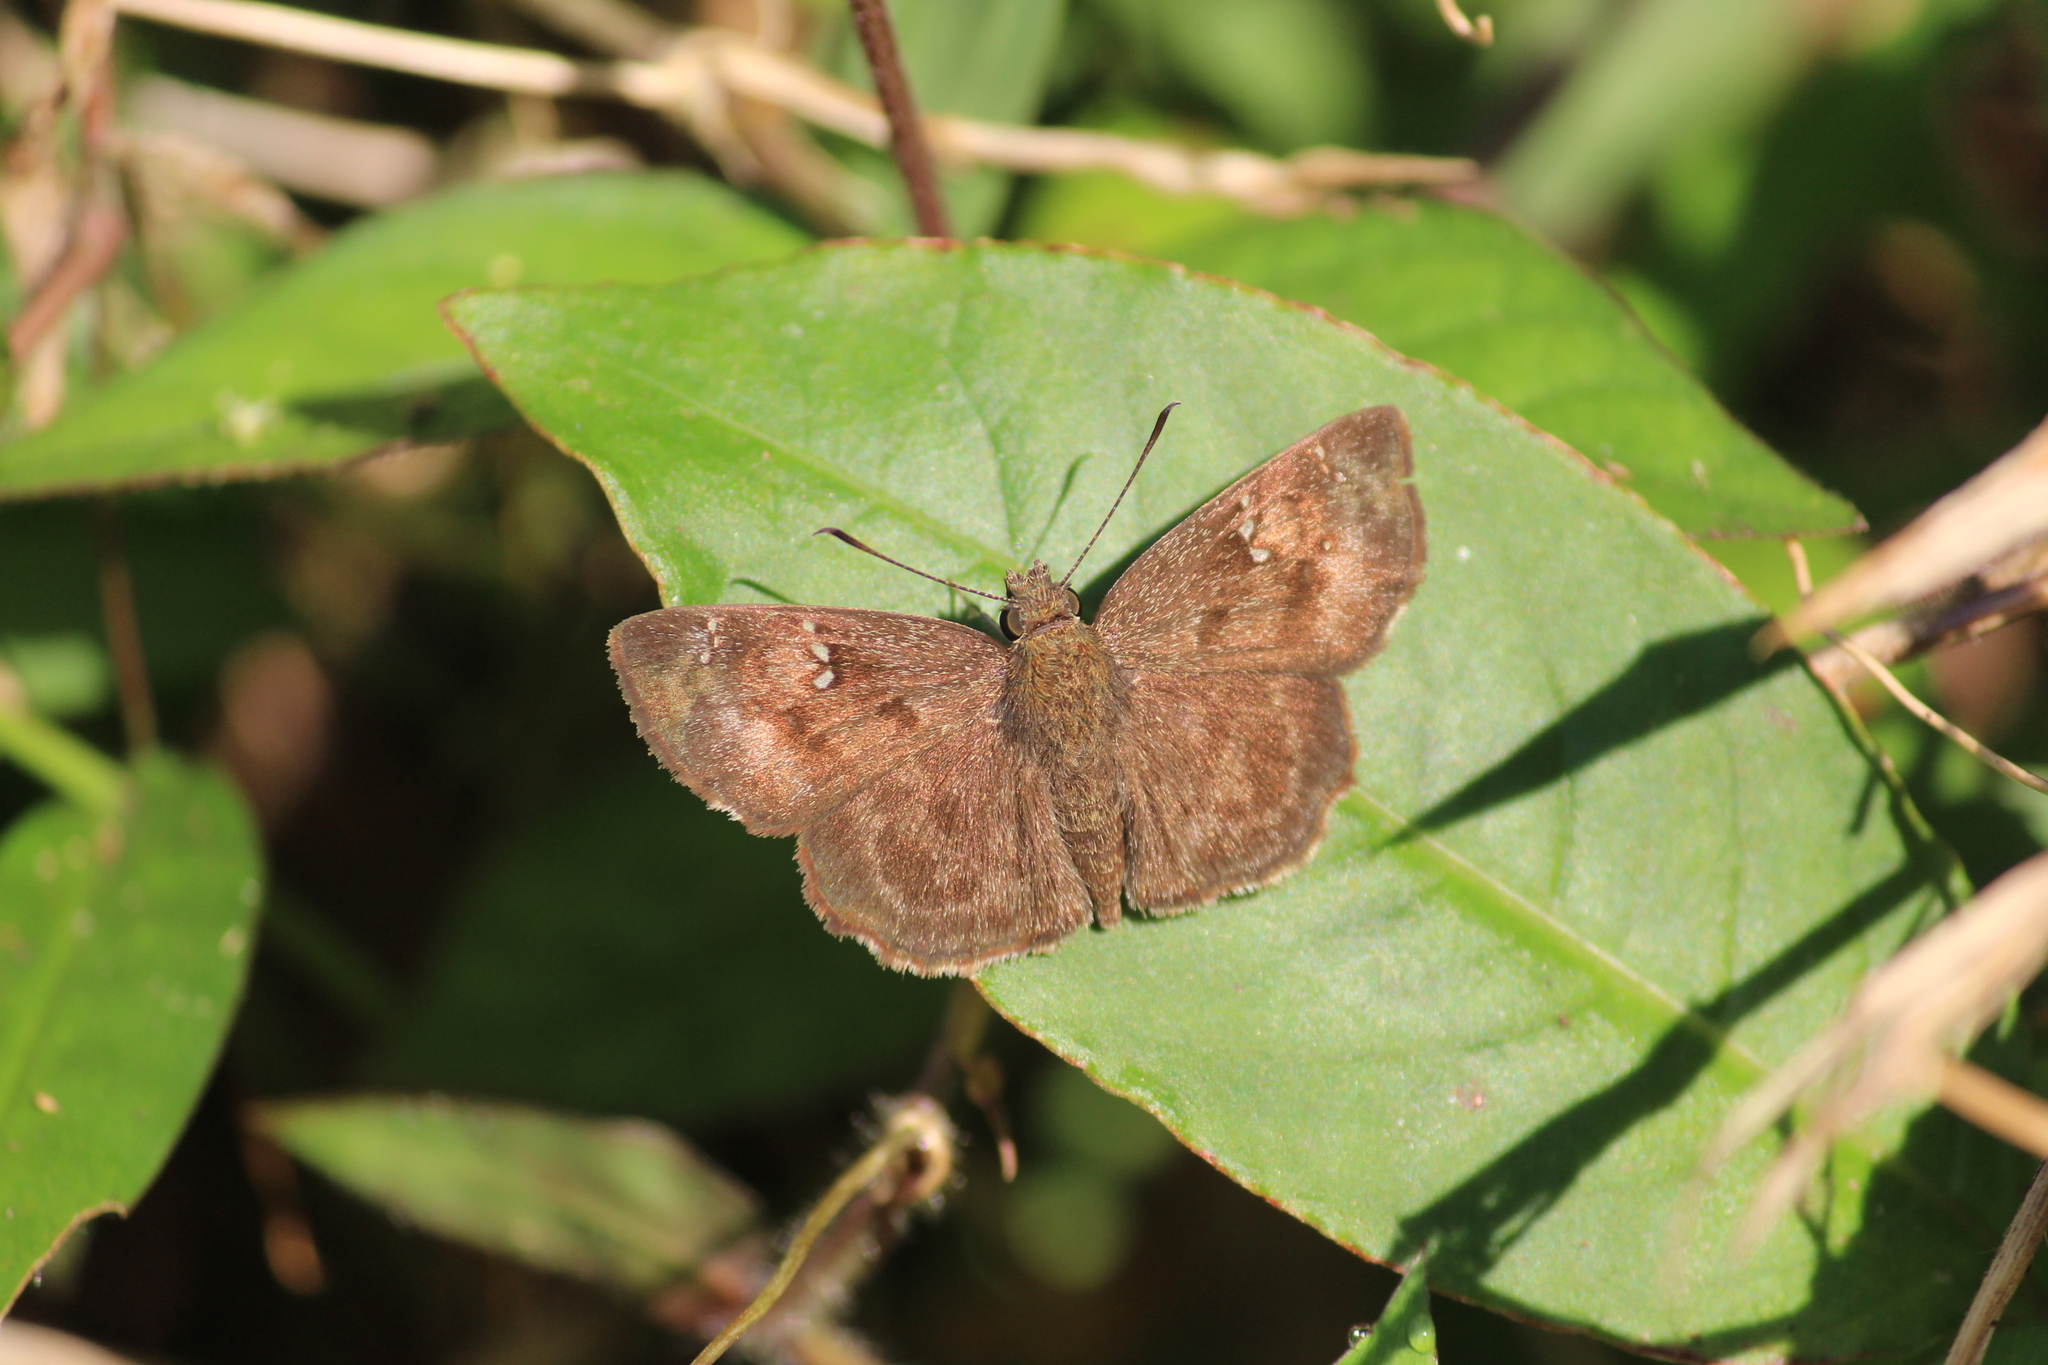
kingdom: Animalia
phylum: Arthropoda
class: Insecta
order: Lepidoptera
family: Hesperiidae
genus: Sarangesa
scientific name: Sarangesa dasahara
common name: Common small flat
